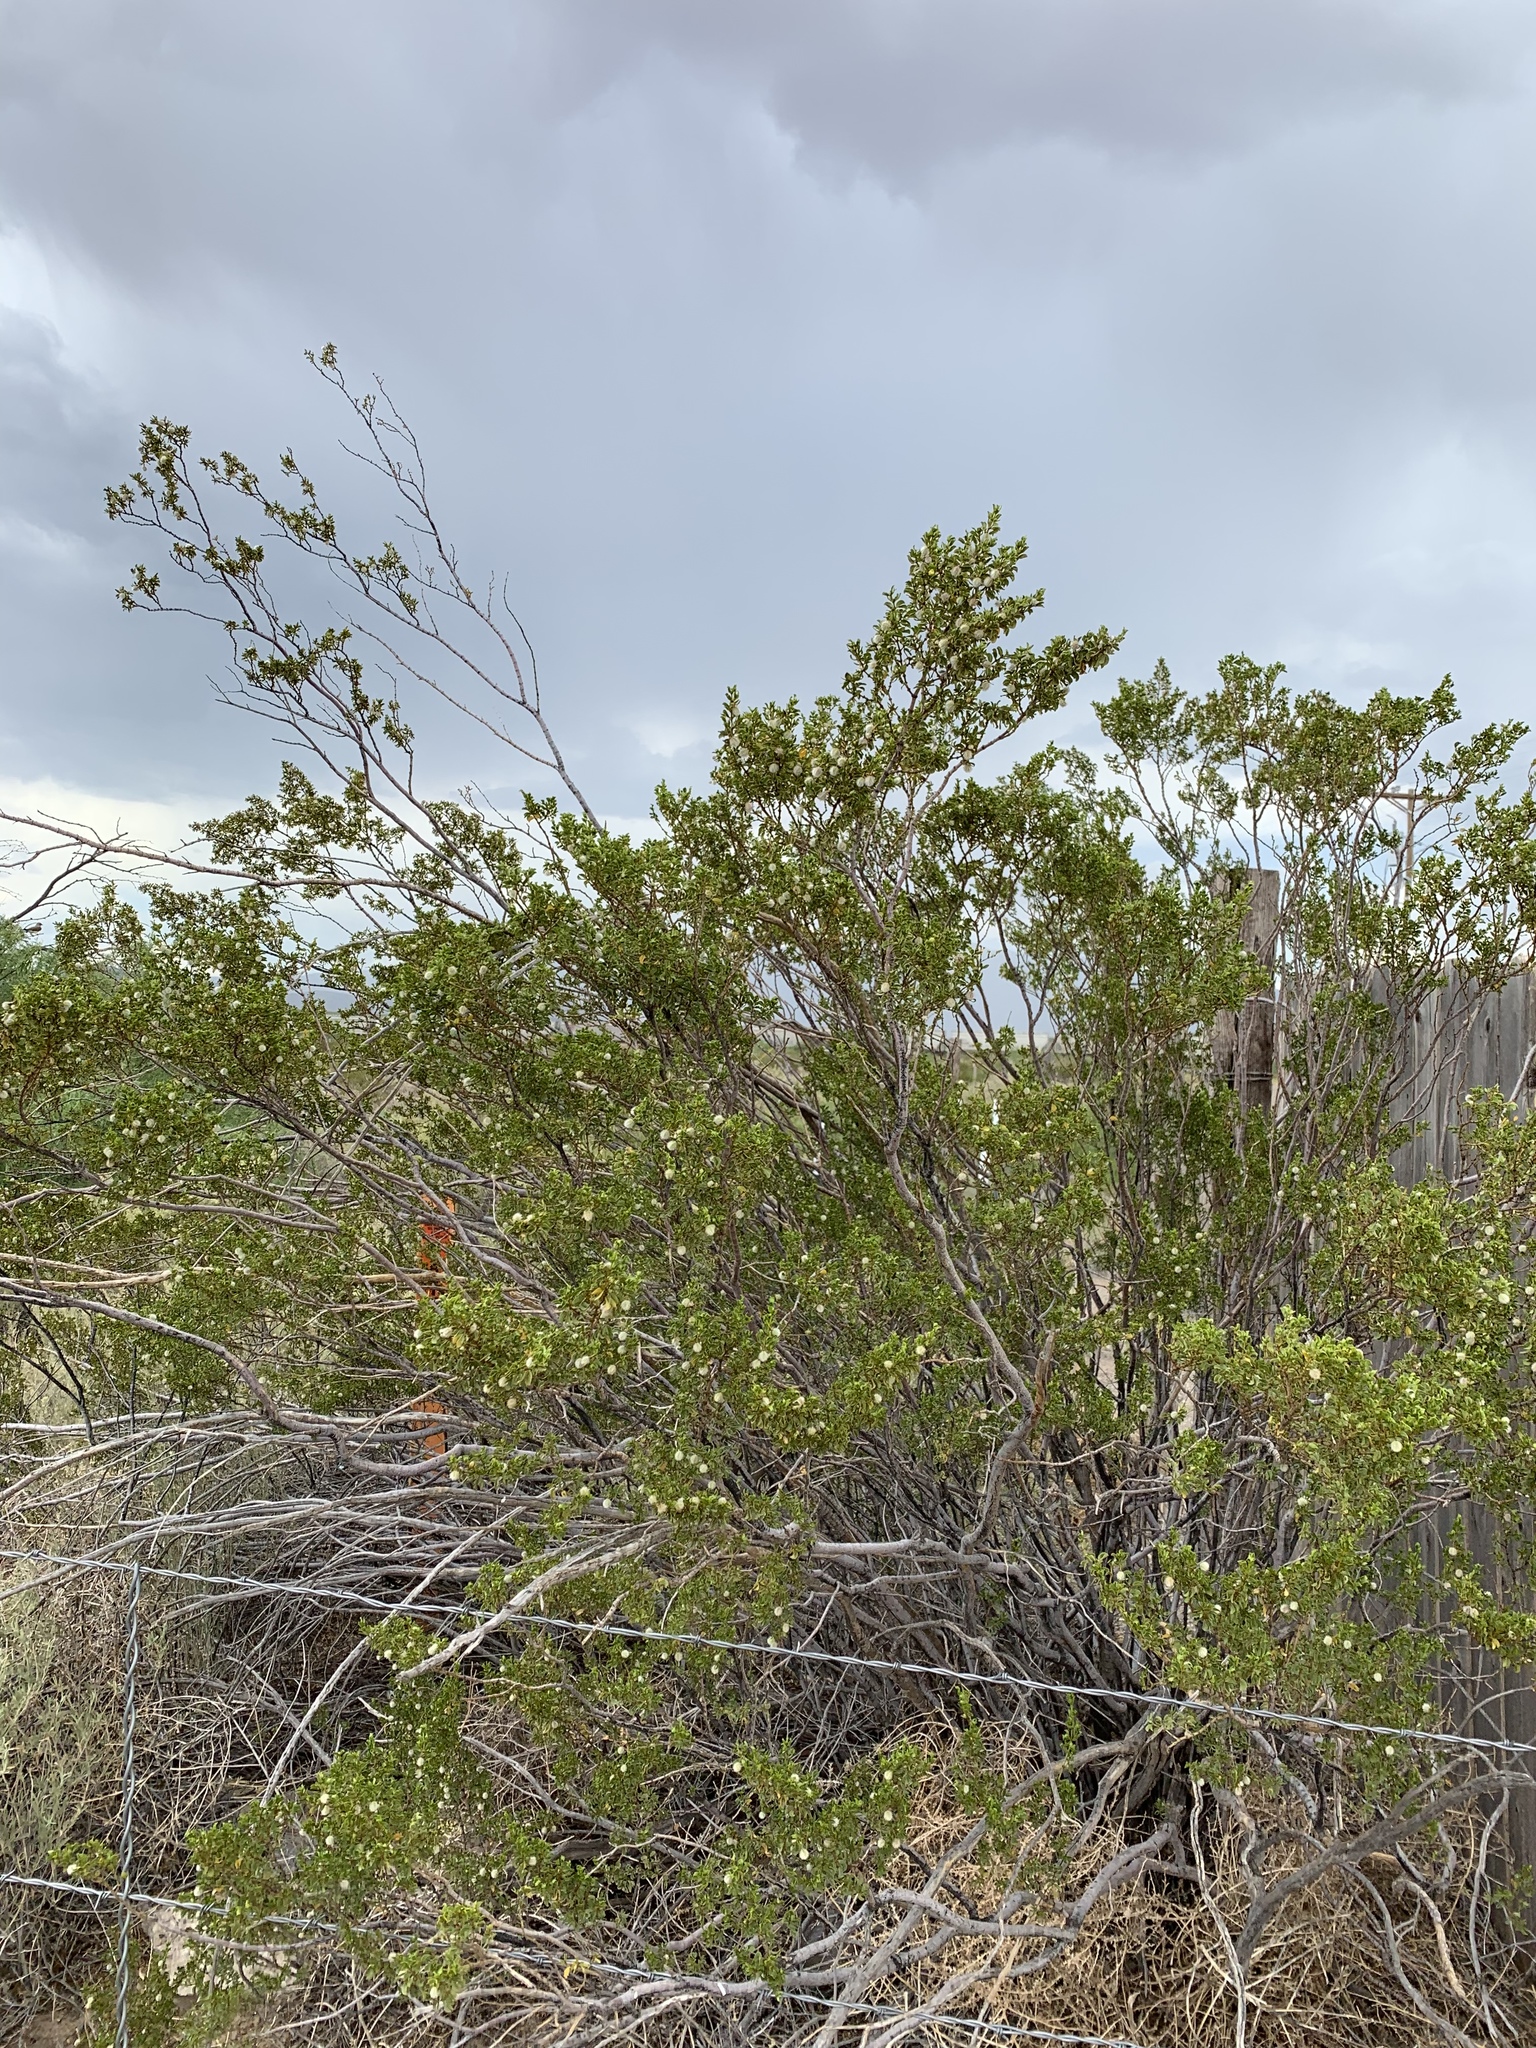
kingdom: Plantae
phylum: Tracheophyta
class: Magnoliopsida
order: Zygophyllales
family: Zygophyllaceae
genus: Larrea
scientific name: Larrea tridentata
